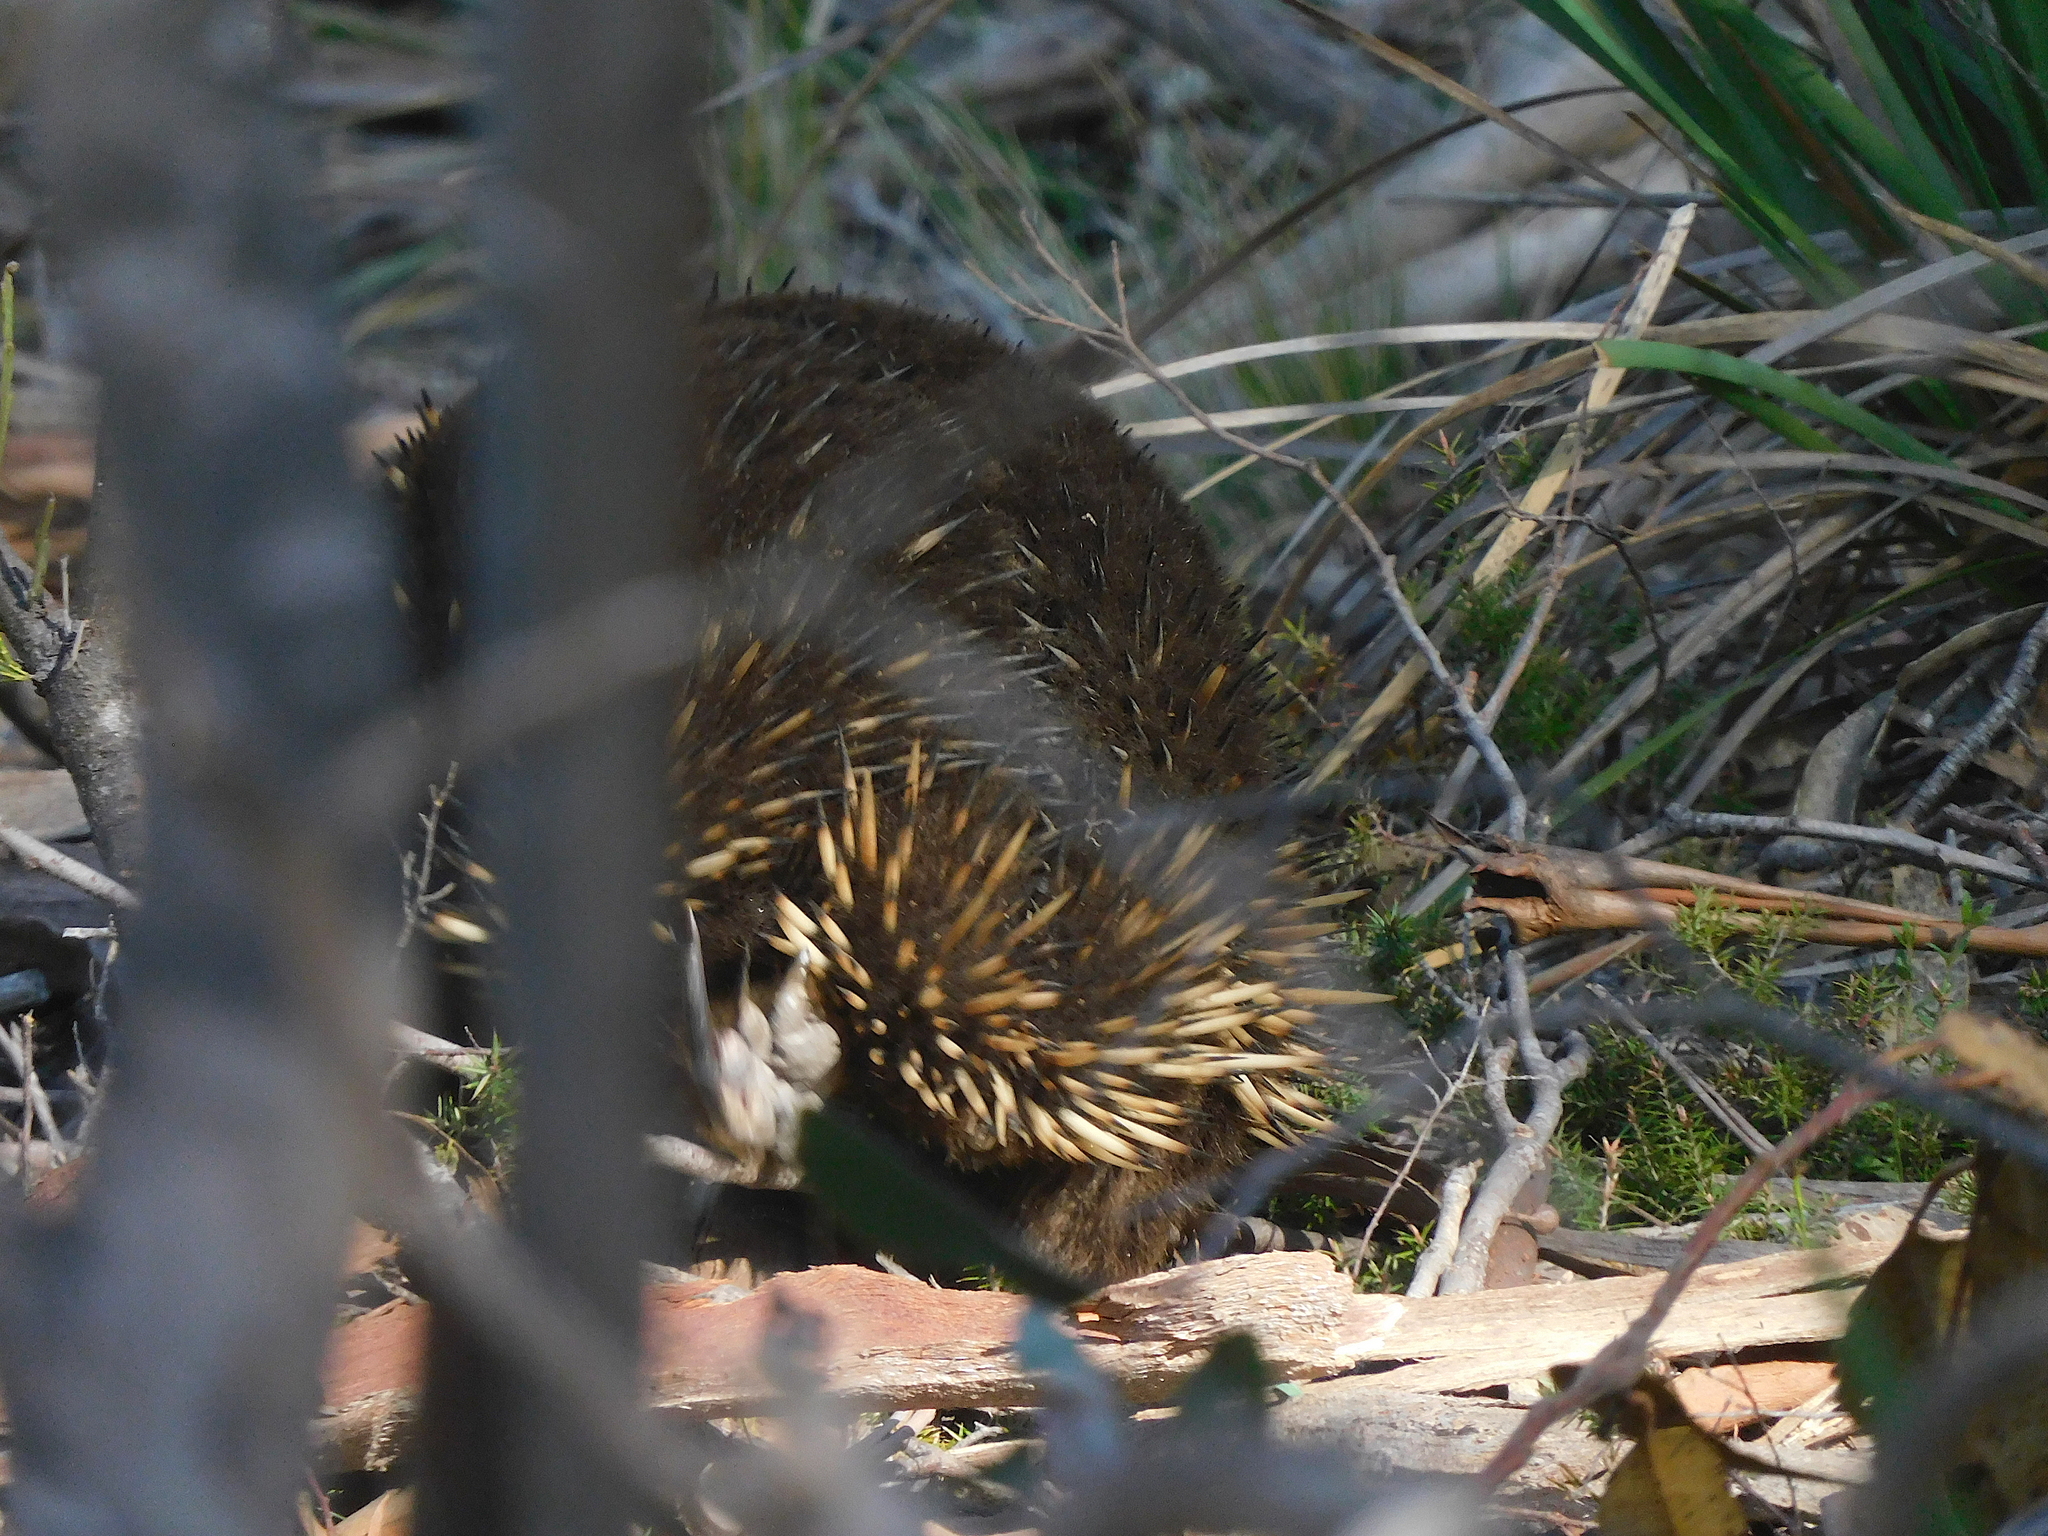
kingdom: Animalia
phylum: Chordata
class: Mammalia
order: Monotremata
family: Tachyglossidae
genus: Tachyglossus
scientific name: Tachyglossus aculeatus
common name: Short-beaked echidna
